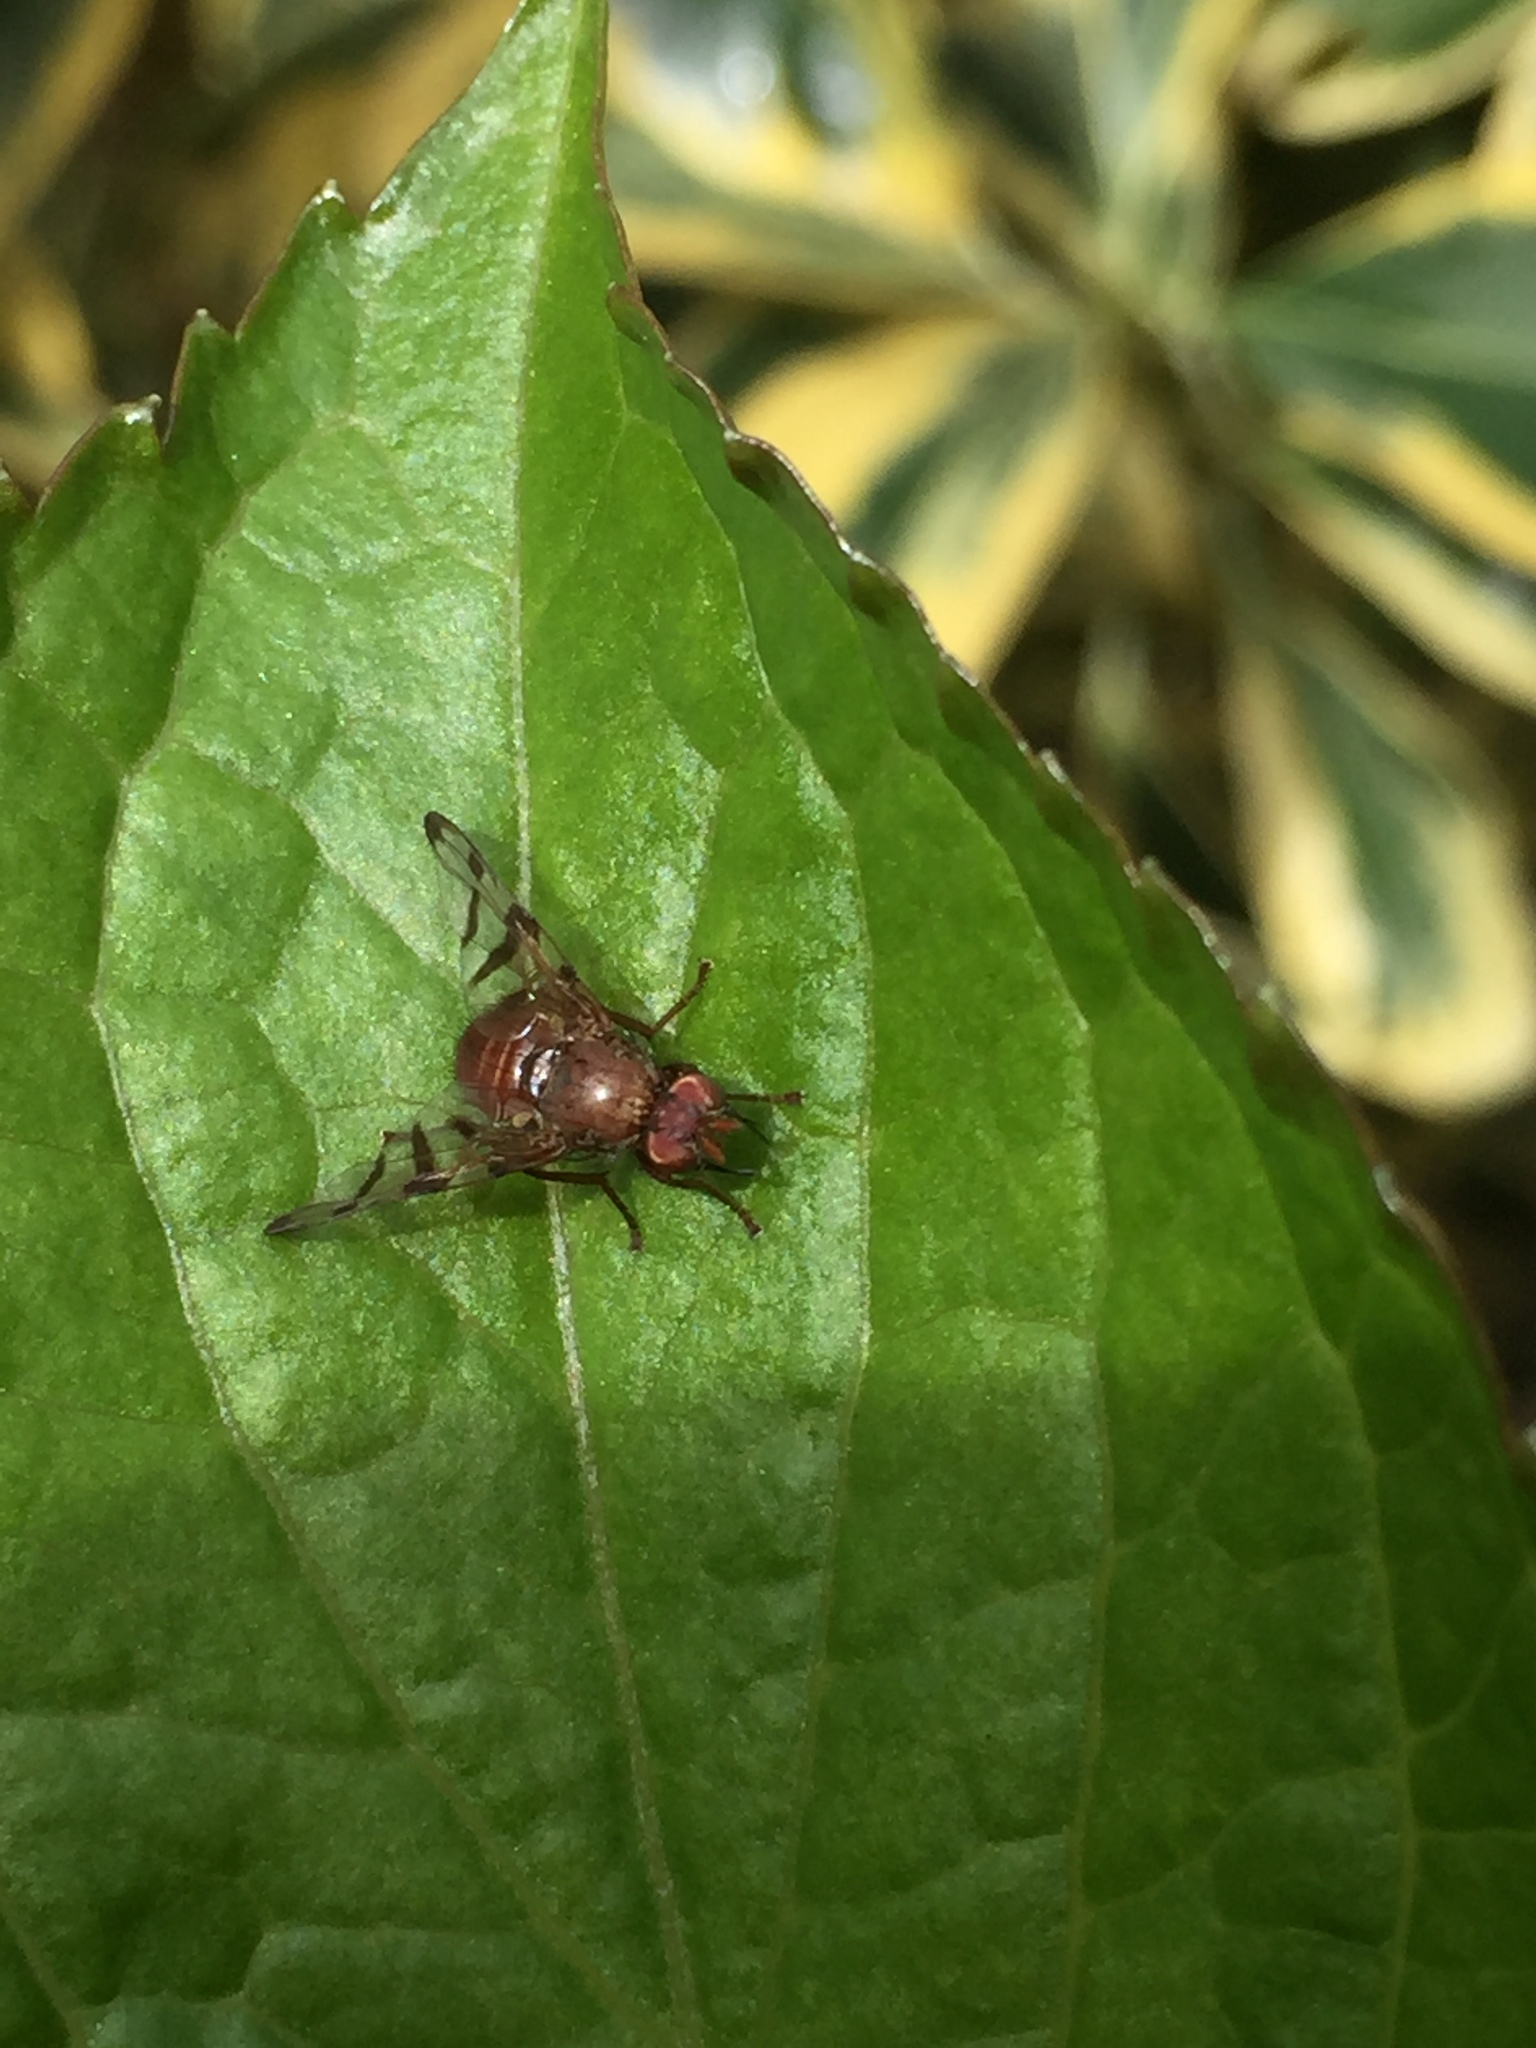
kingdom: Animalia
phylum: Arthropoda
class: Insecta
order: Diptera
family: Tephritidae
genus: Chetostoma
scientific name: Chetostoma curvinerve
